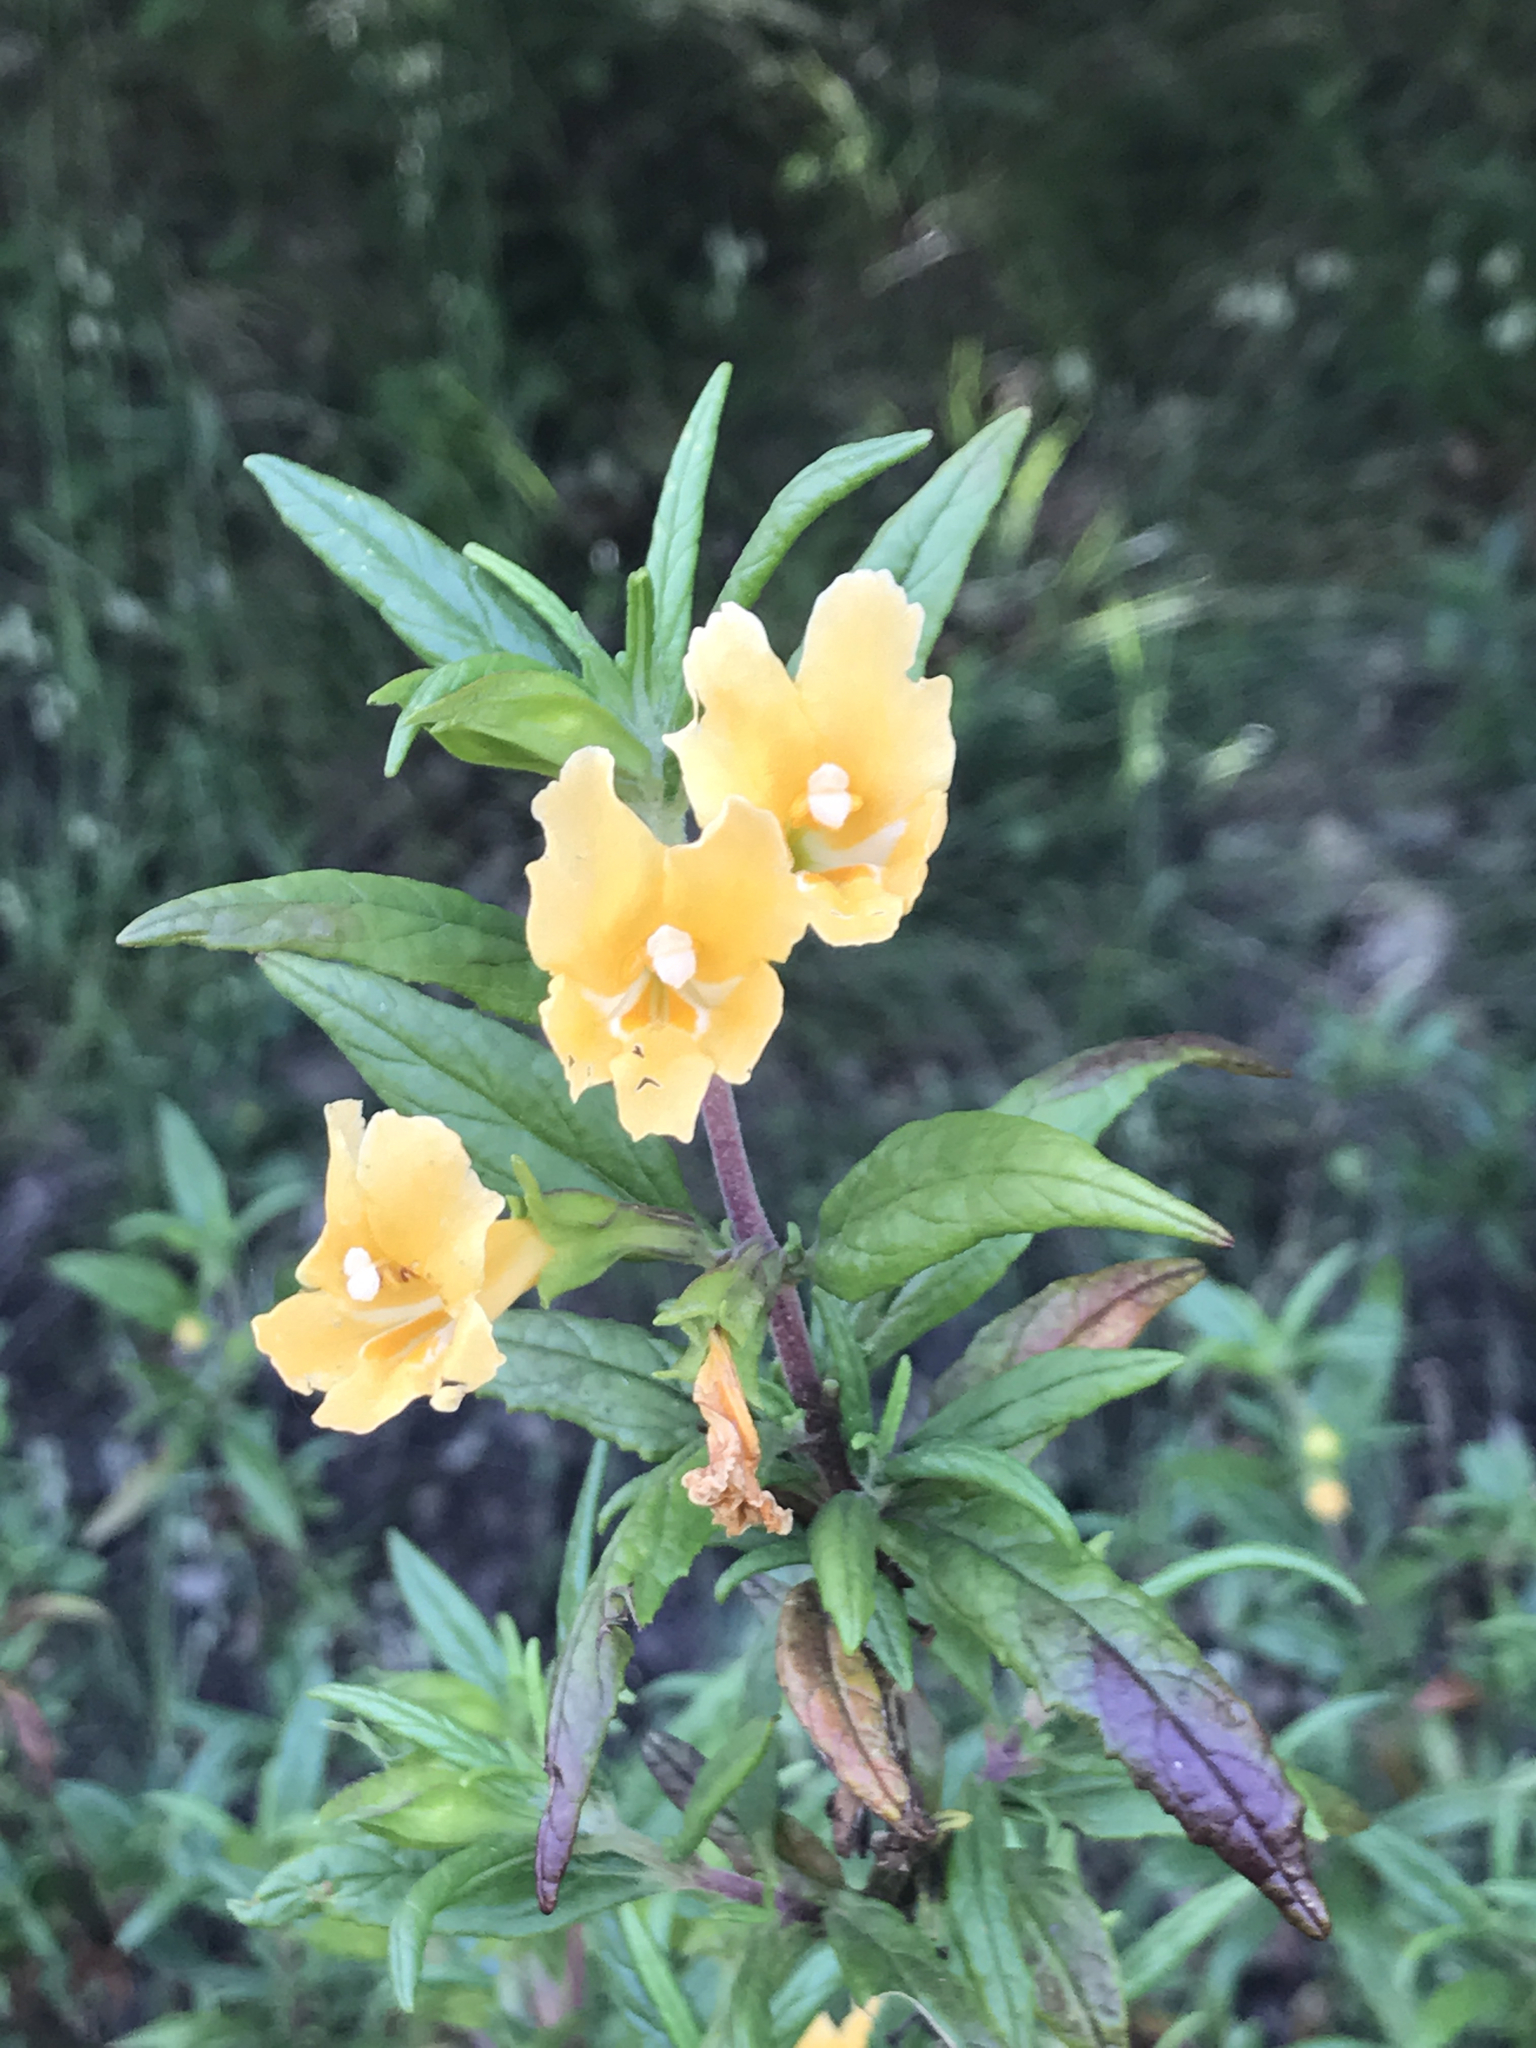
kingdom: Plantae
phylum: Tracheophyta
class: Magnoliopsida
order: Lamiales
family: Phrymaceae
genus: Diplacus
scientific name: Diplacus aurantiacus
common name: Bush monkey-flower
